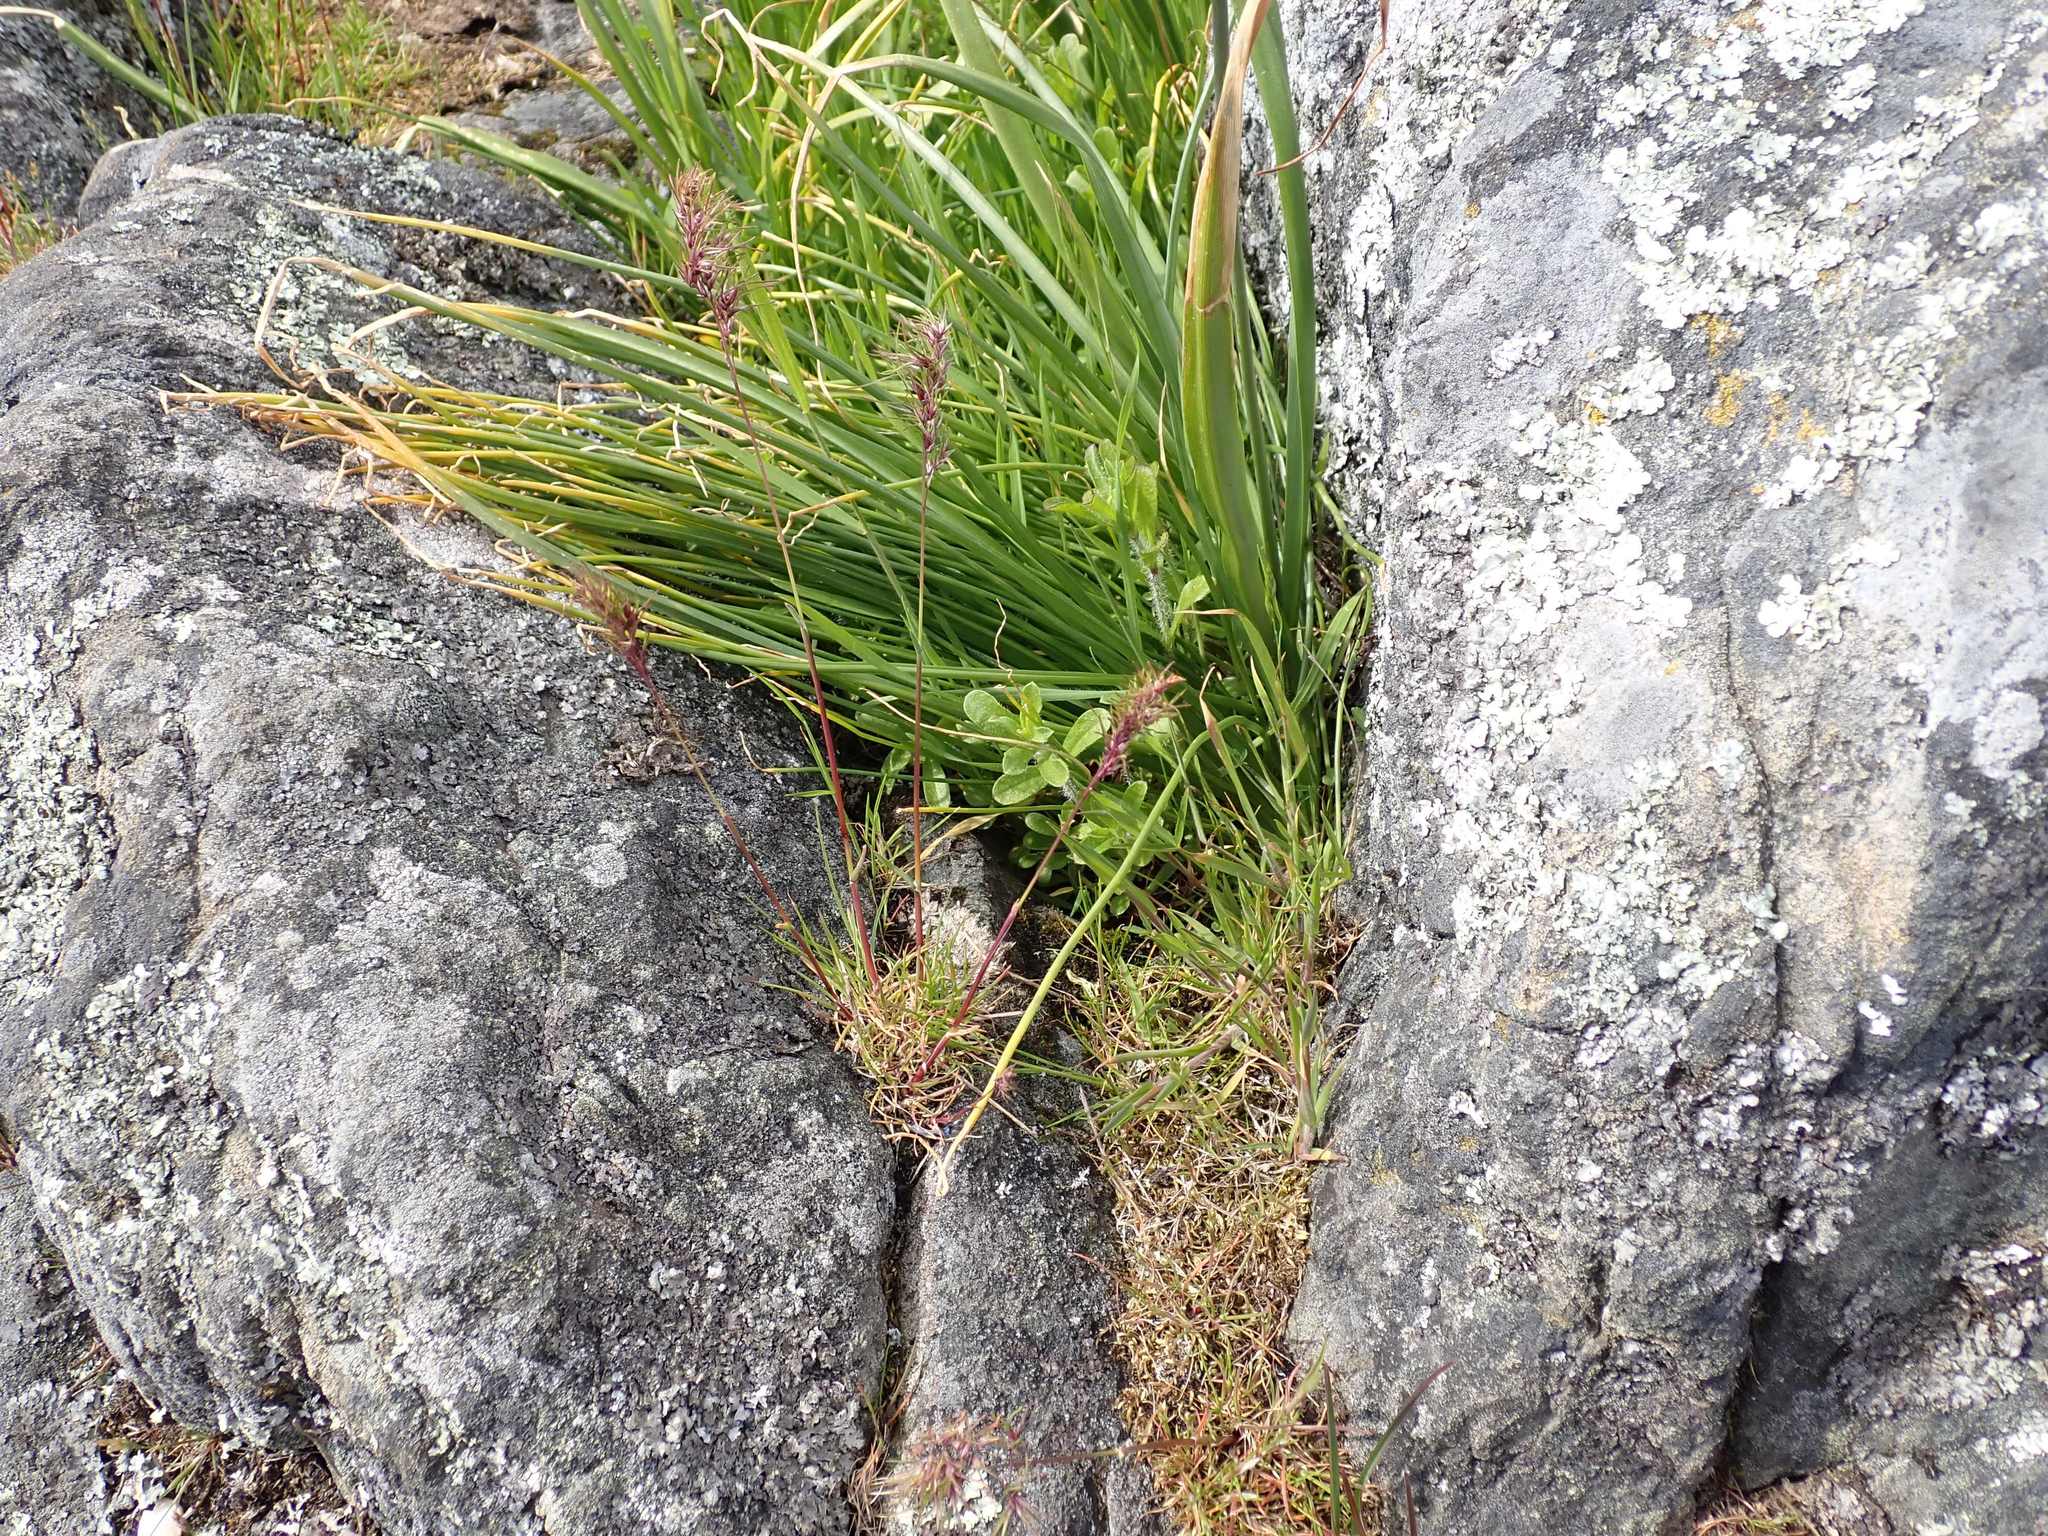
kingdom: Plantae
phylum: Tracheophyta
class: Liliopsida
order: Poales
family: Poaceae
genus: Poa
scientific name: Poa bulbosa
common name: Bulbous bluegrass
